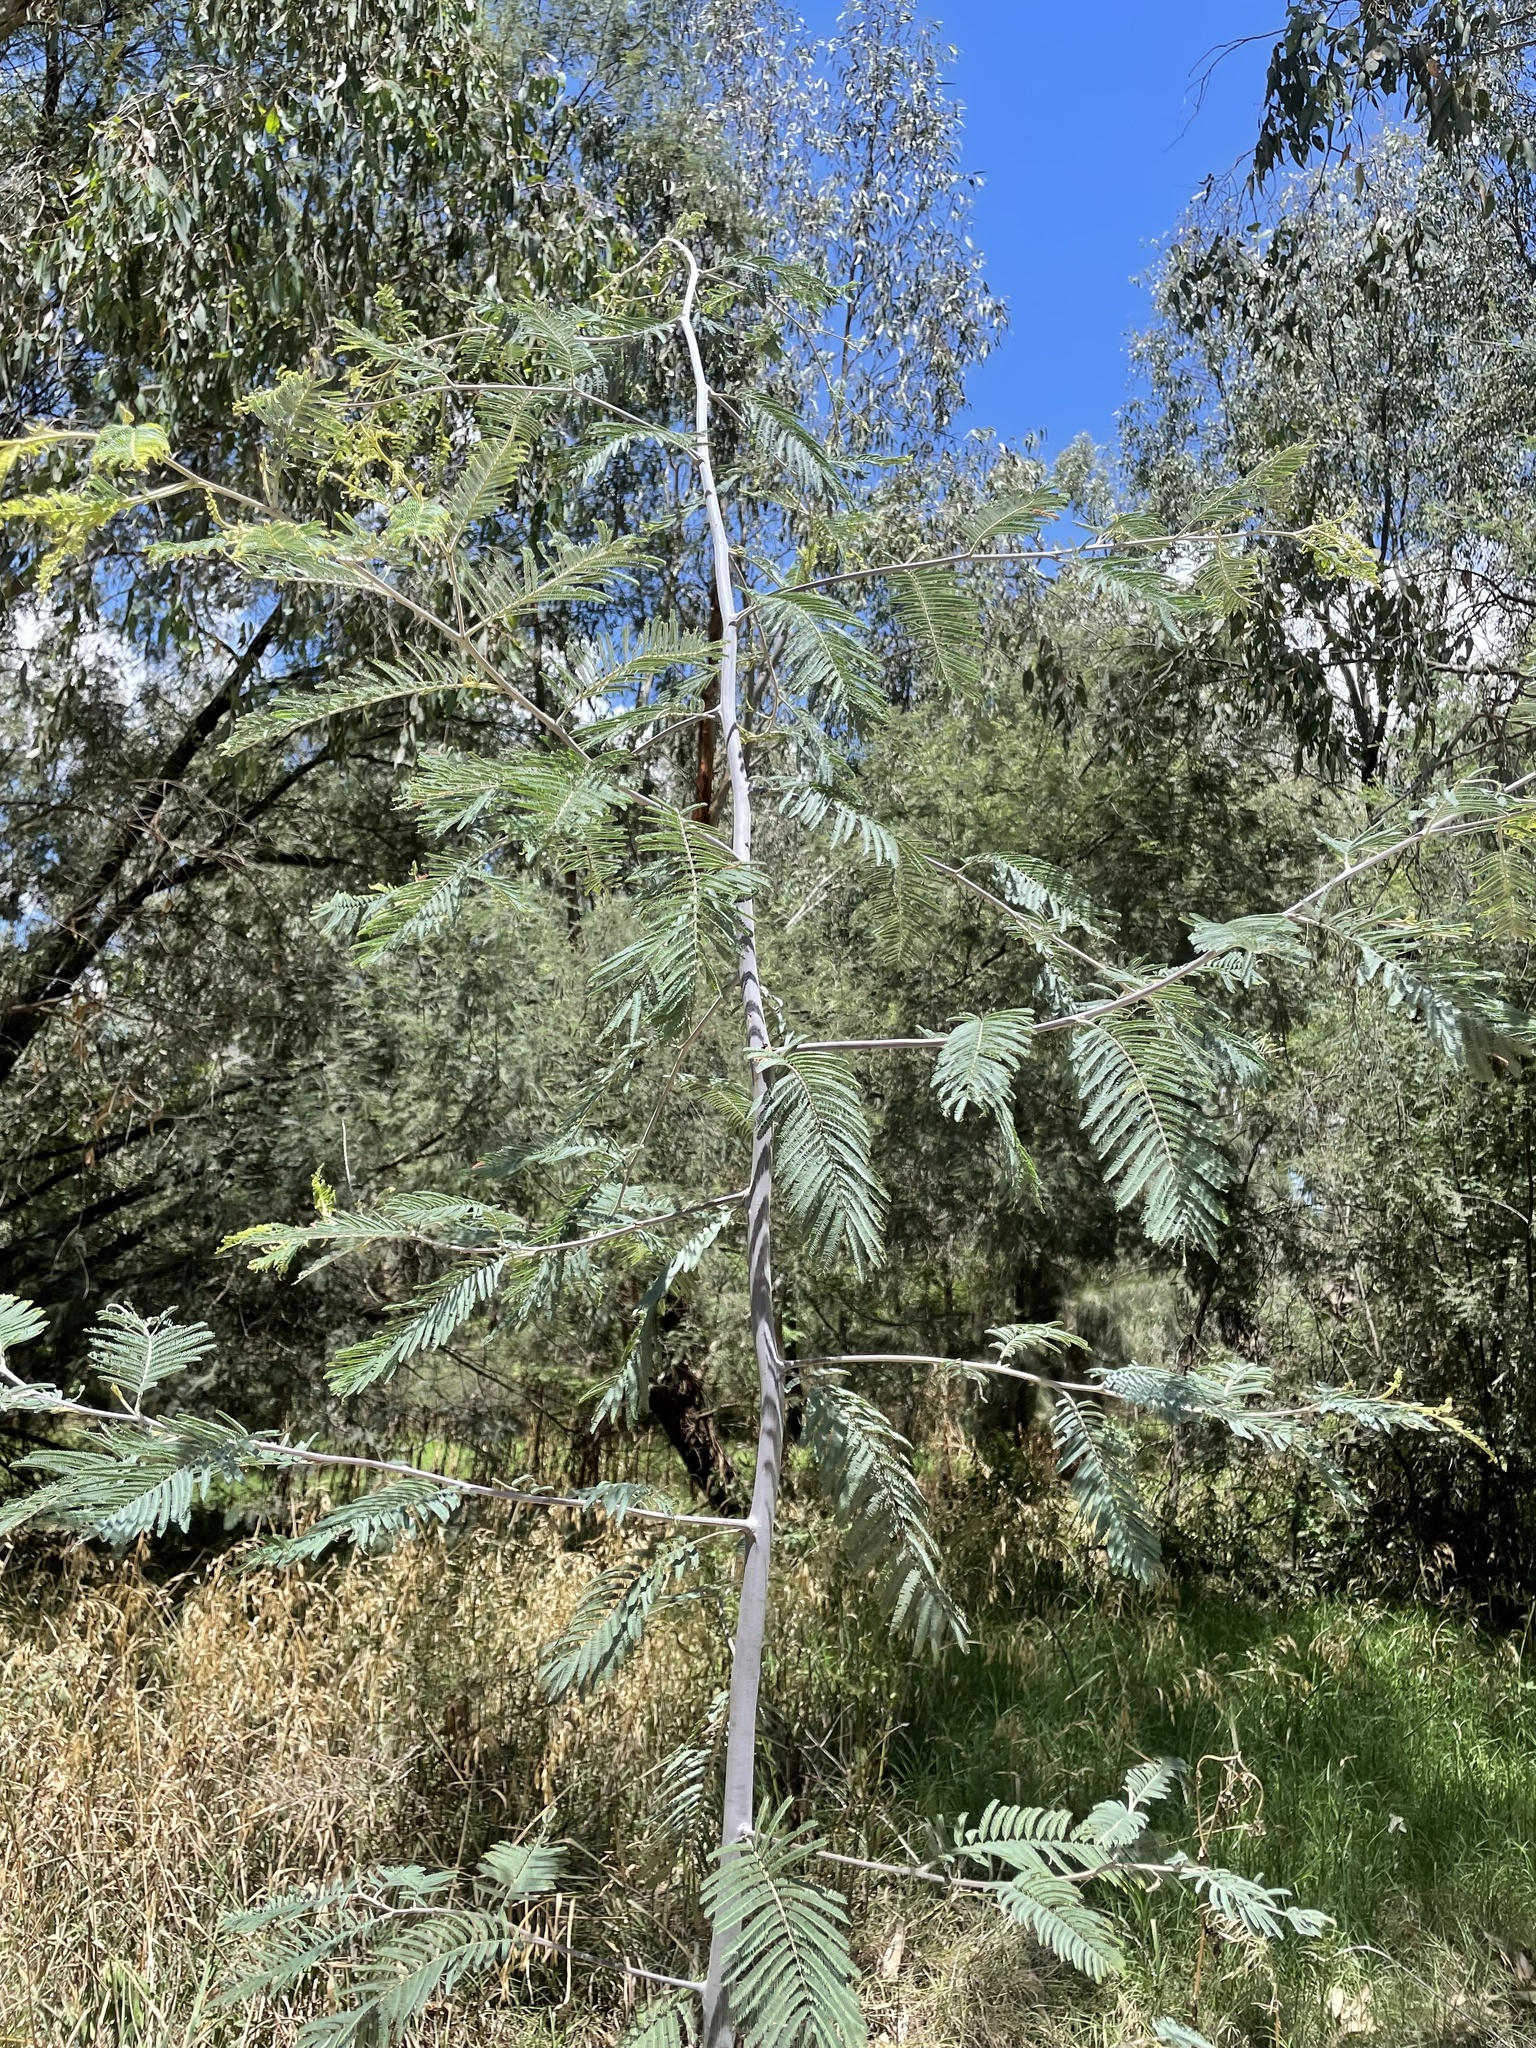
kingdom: Plantae
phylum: Tracheophyta
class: Magnoliopsida
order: Fabales
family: Fabaceae
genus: Acacia
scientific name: Acacia dealbata
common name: Silver wattle
